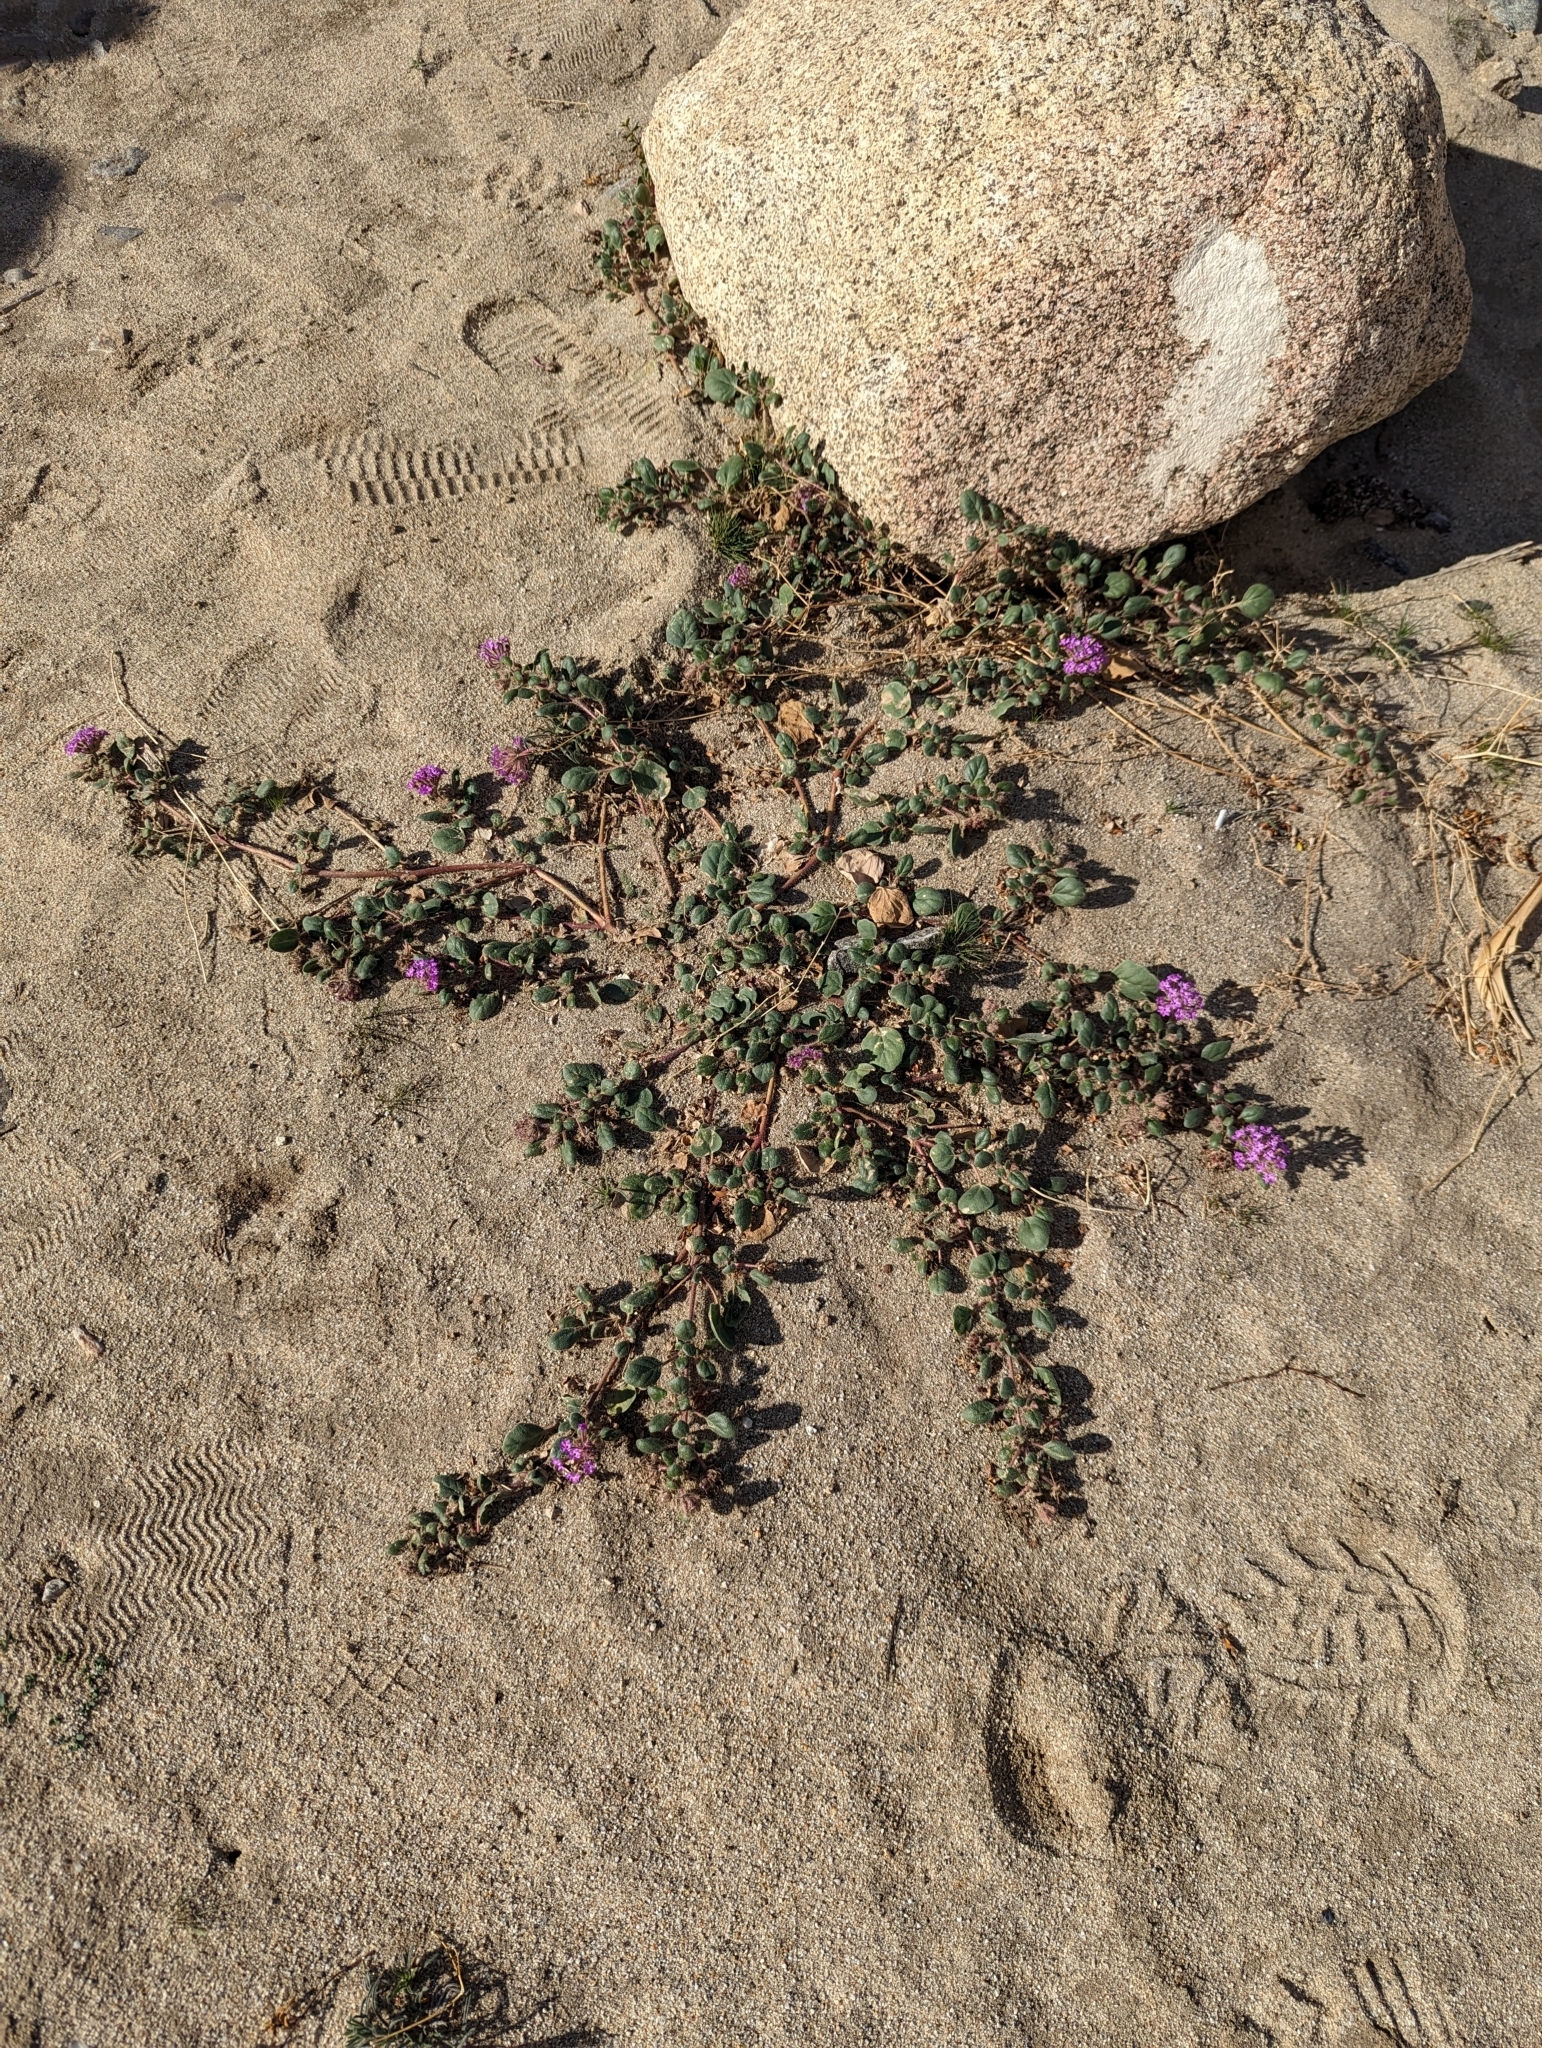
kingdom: Plantae
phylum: Tracheophyta
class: Magnoliopsida
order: Caryophyllales
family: Nyctaginaceae
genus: Abronia
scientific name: Abronia villosa
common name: Desert sand-verbena
